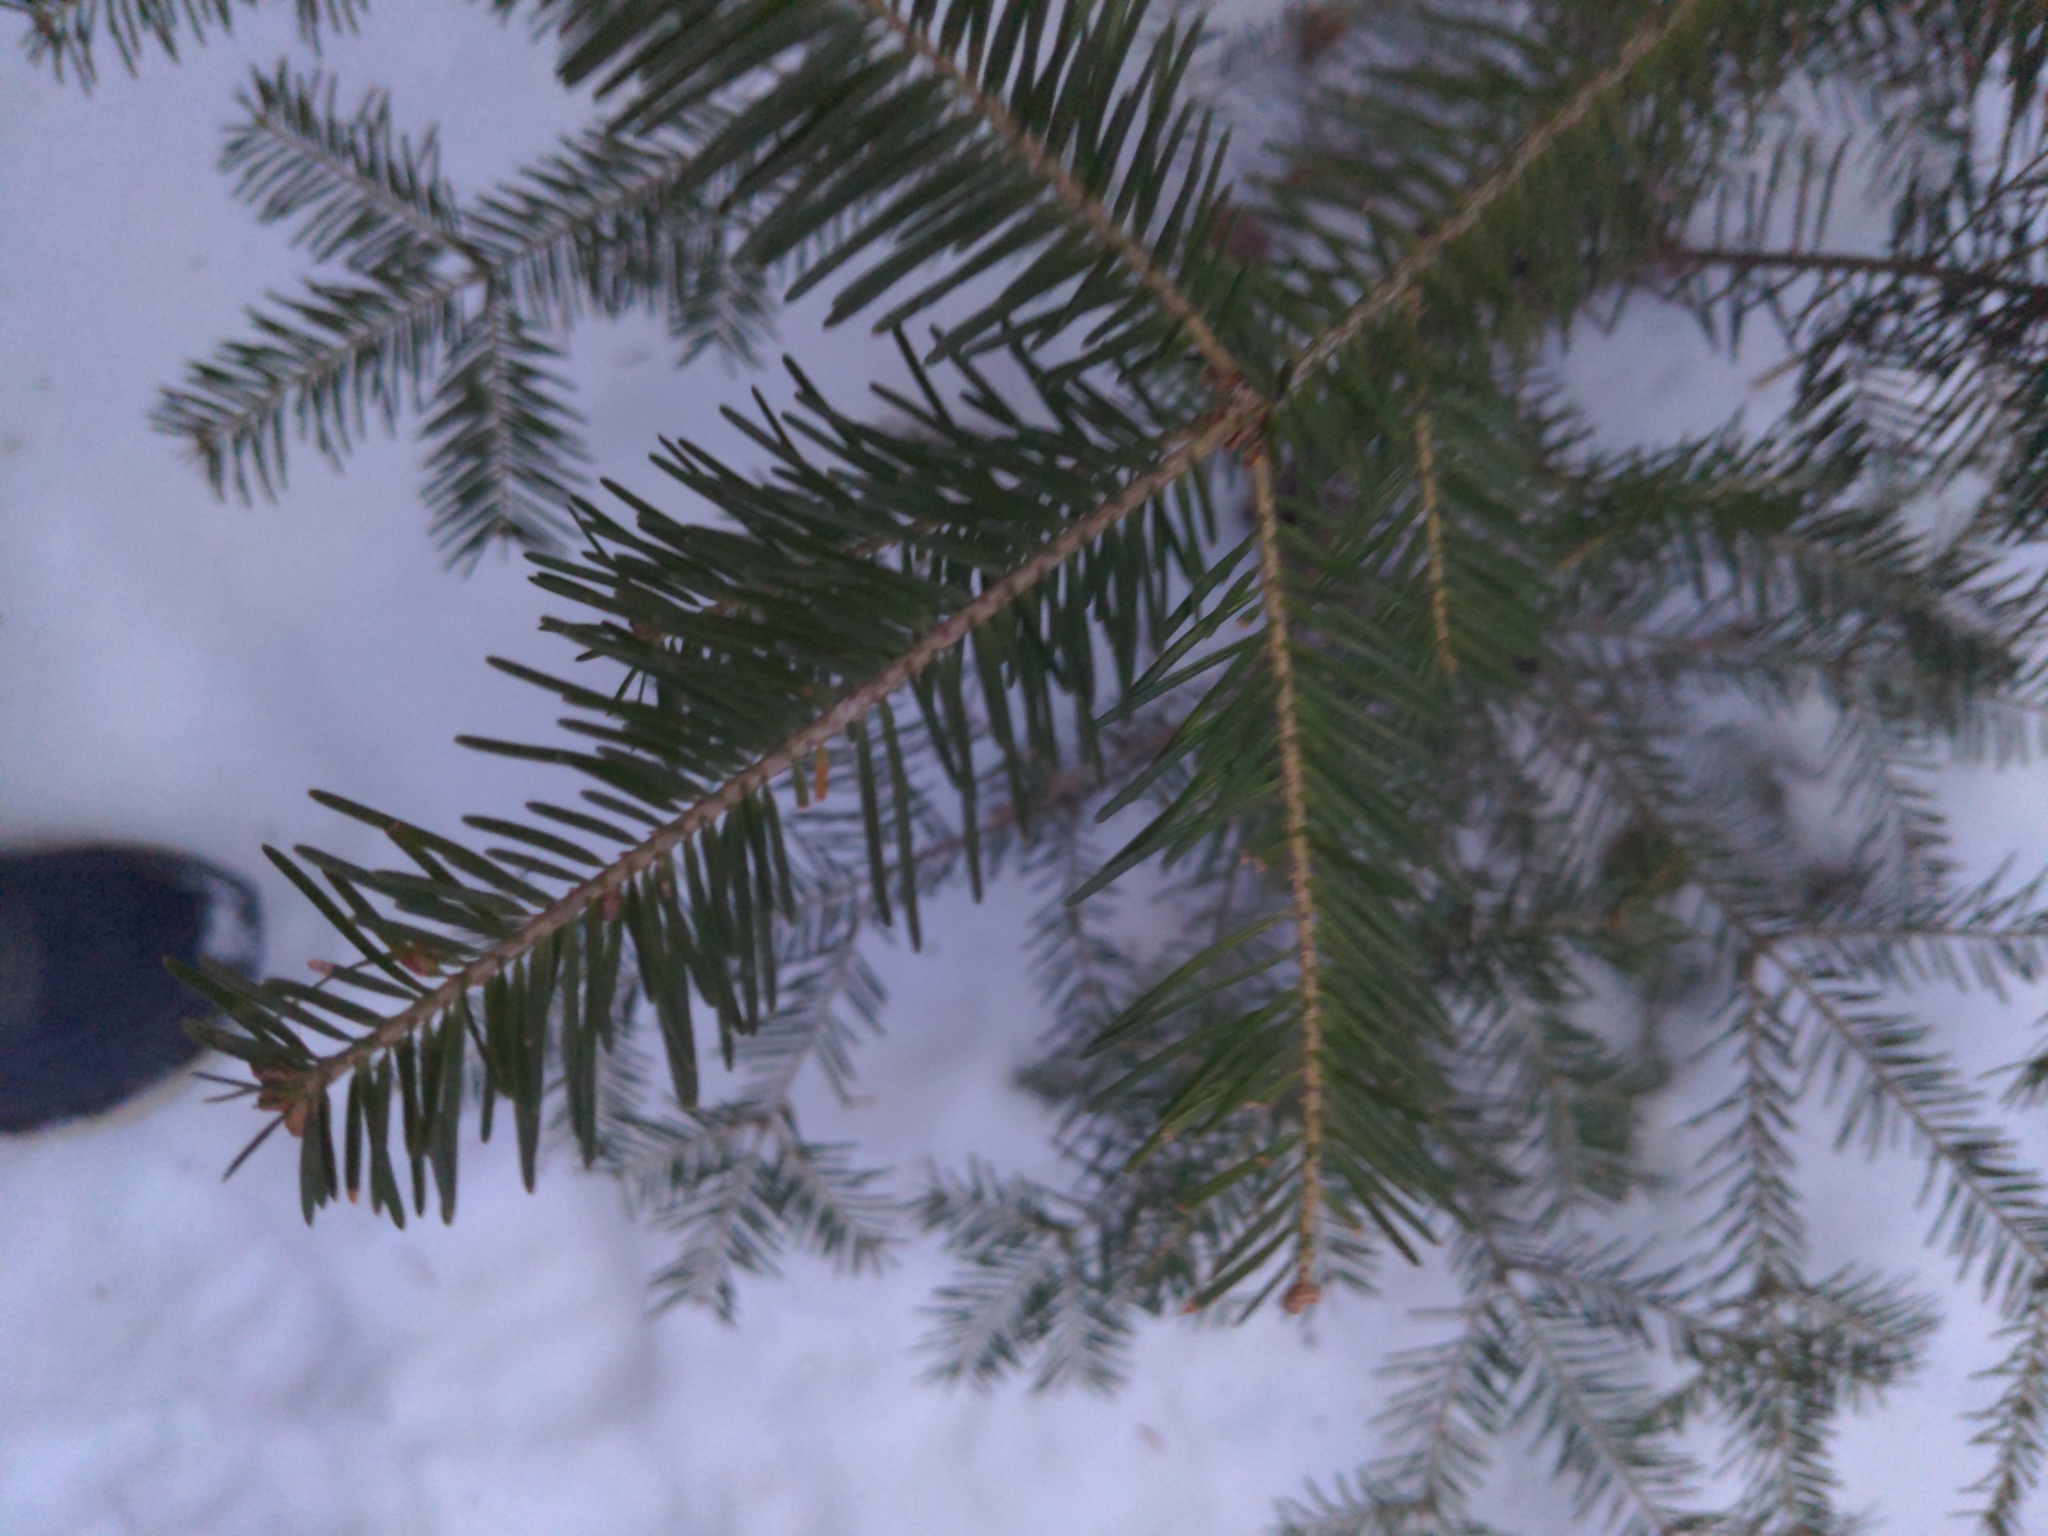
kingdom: Plantae
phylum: Tracheophyta
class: Pinopsida
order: Pinales
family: Pinaceae
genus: Abies
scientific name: Abies balsamea
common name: Balsam fir
